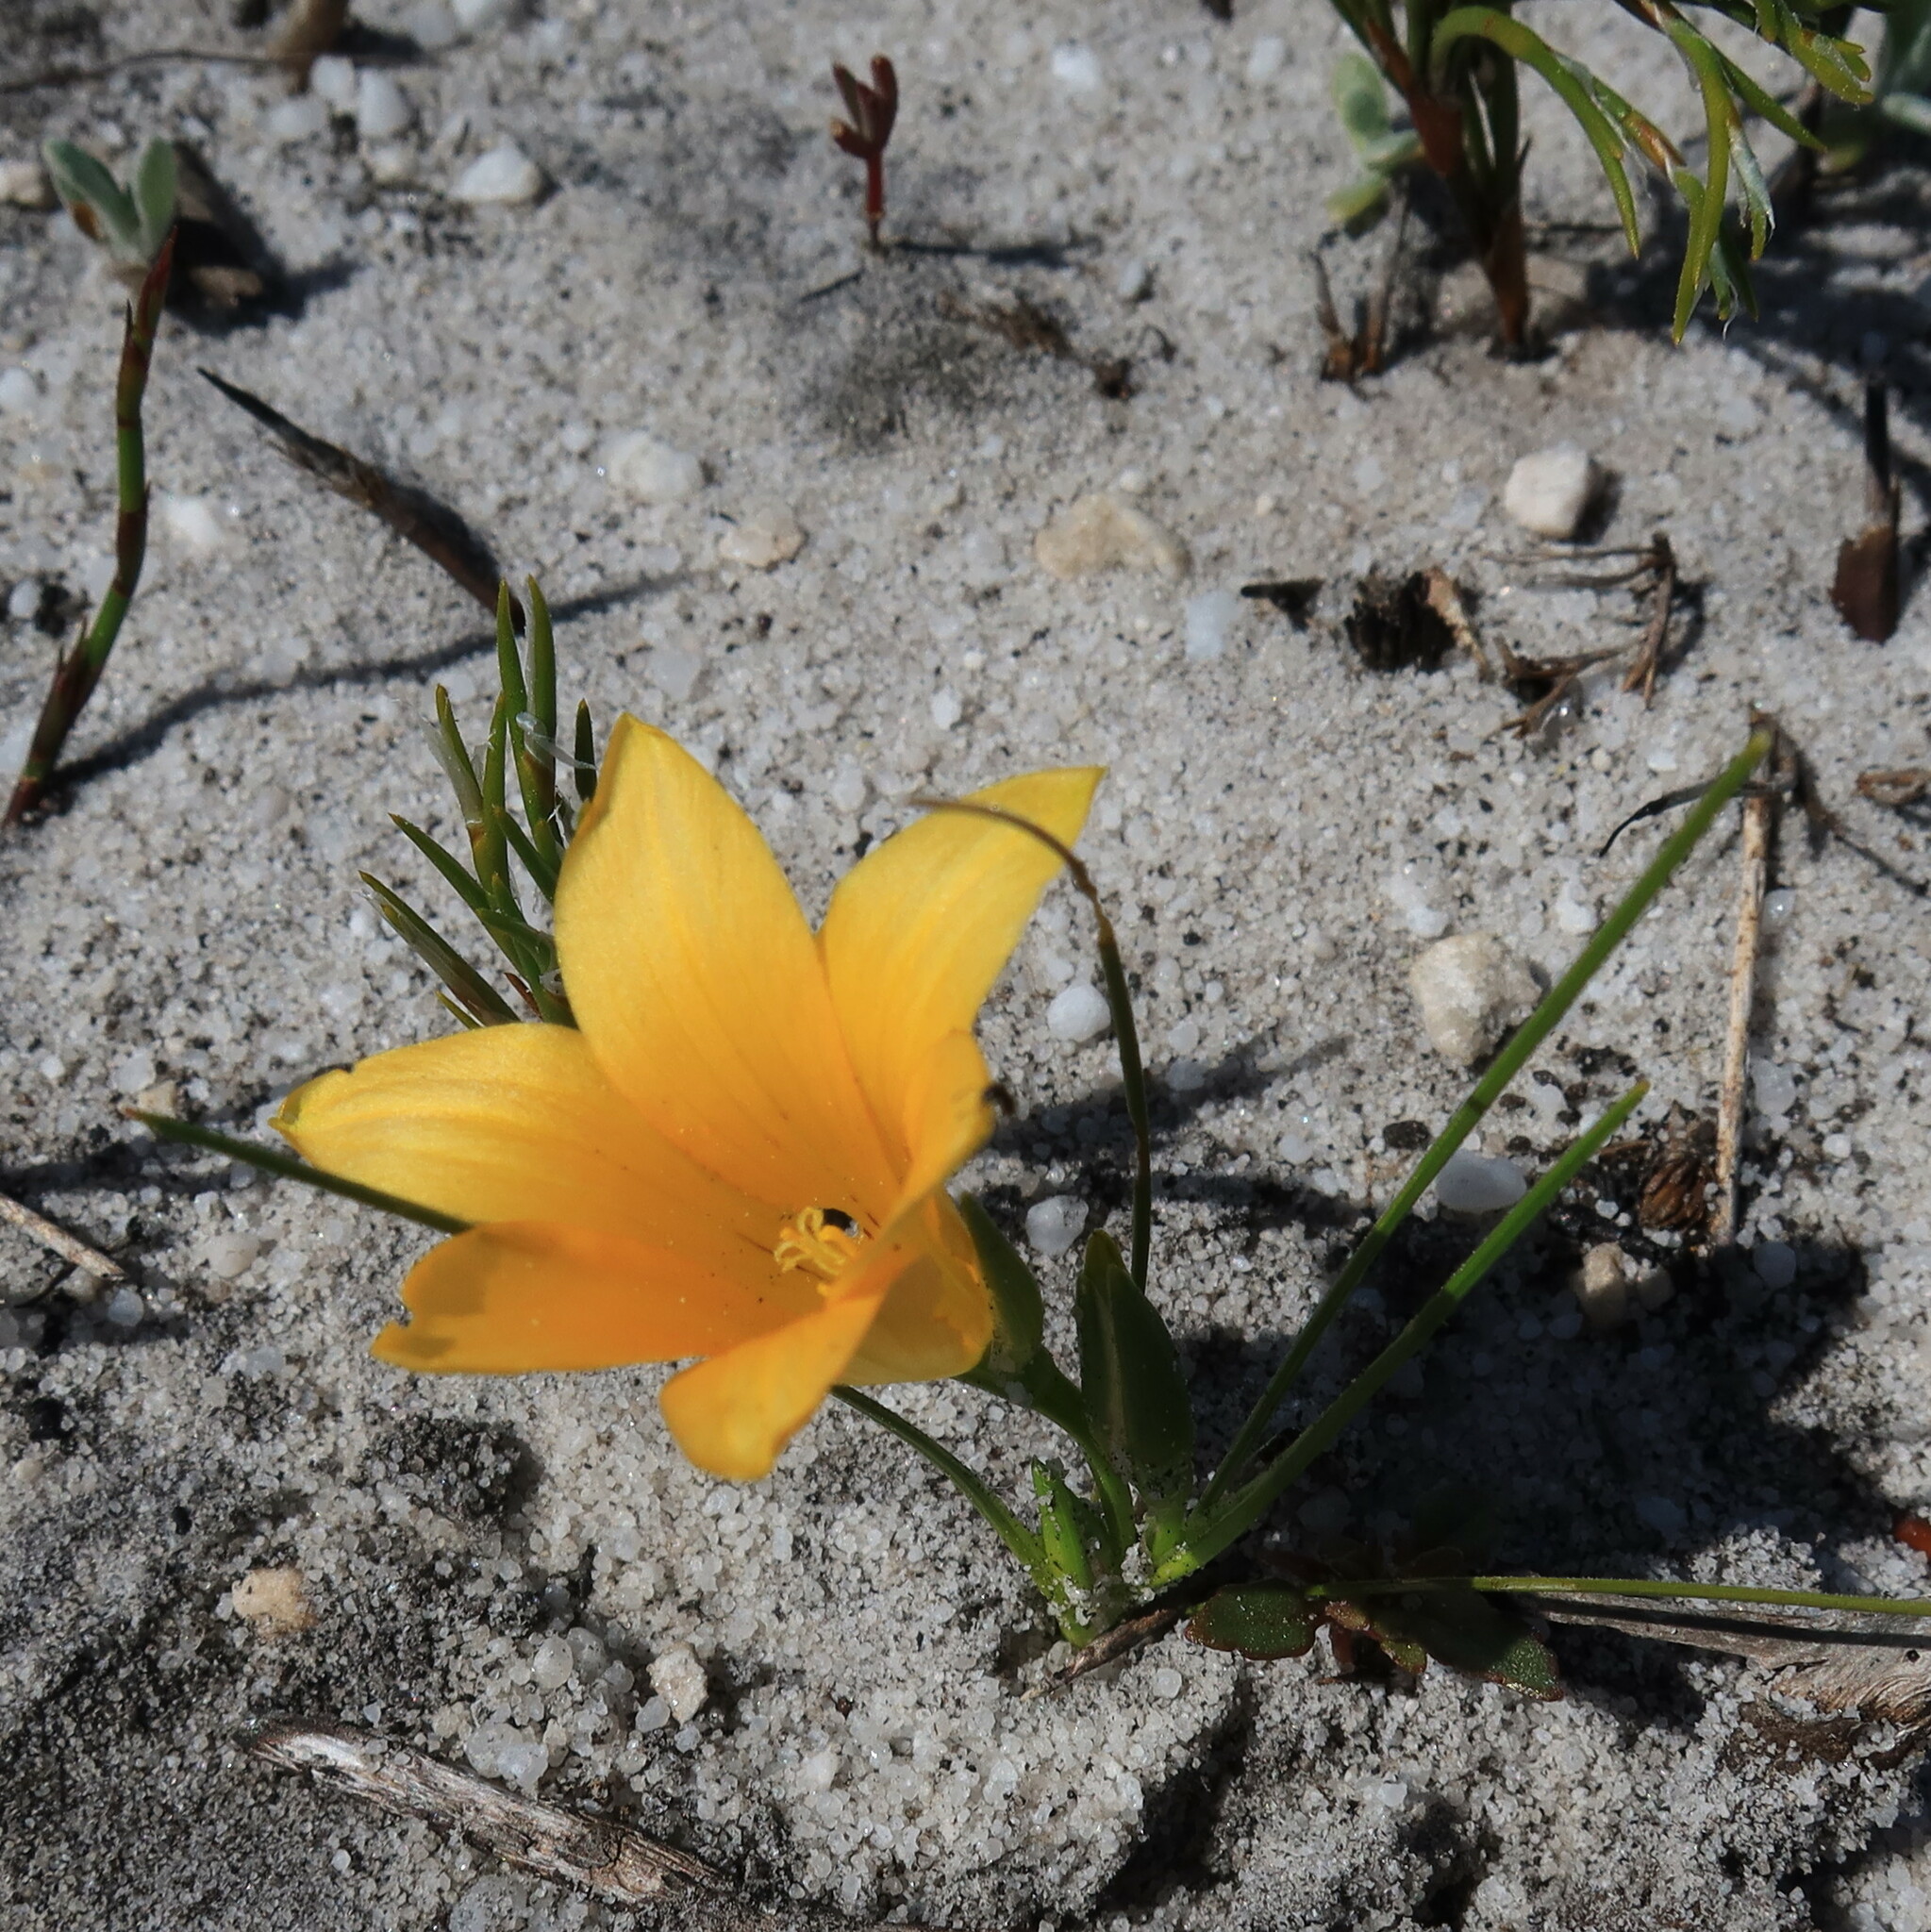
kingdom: Plantae
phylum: Tracheophyta
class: Liliopsida
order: Asparagales
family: Iridaceae
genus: Romulea
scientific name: Romulea triflora
